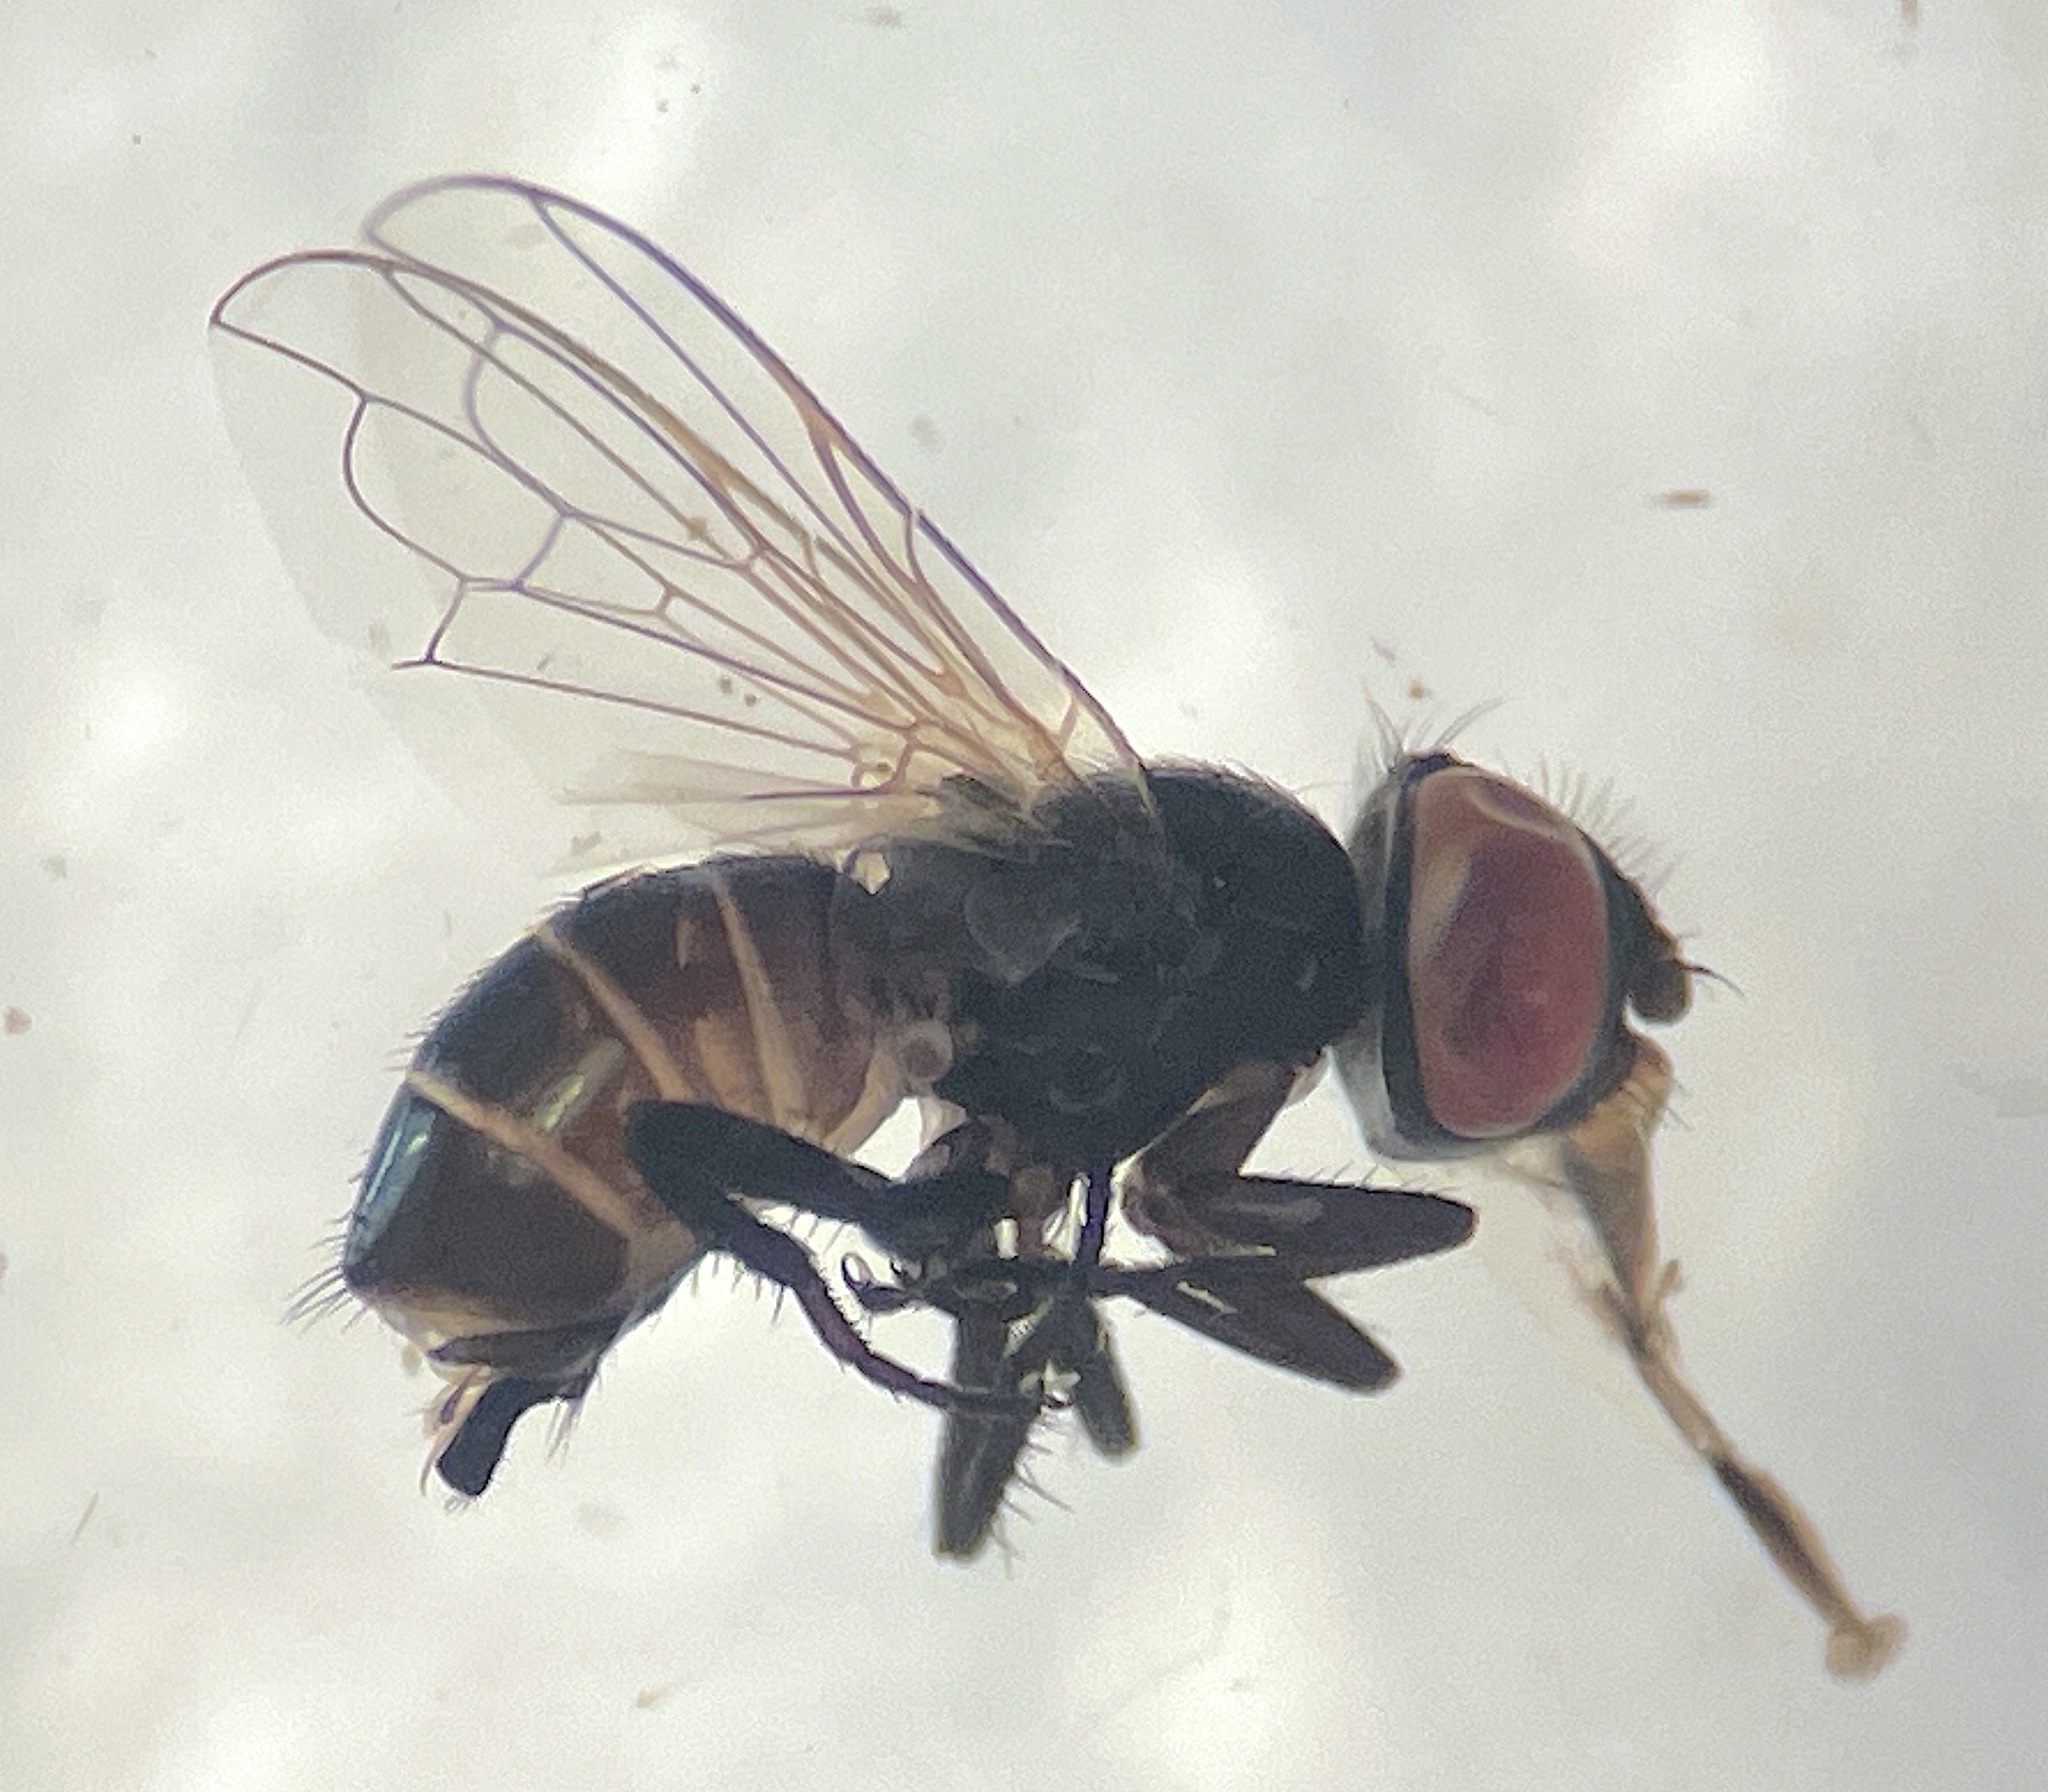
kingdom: Animalia
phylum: Arthropoda
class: Insecta
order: Diptera
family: Tachinidae
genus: Phasia
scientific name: Phasia campbelli
